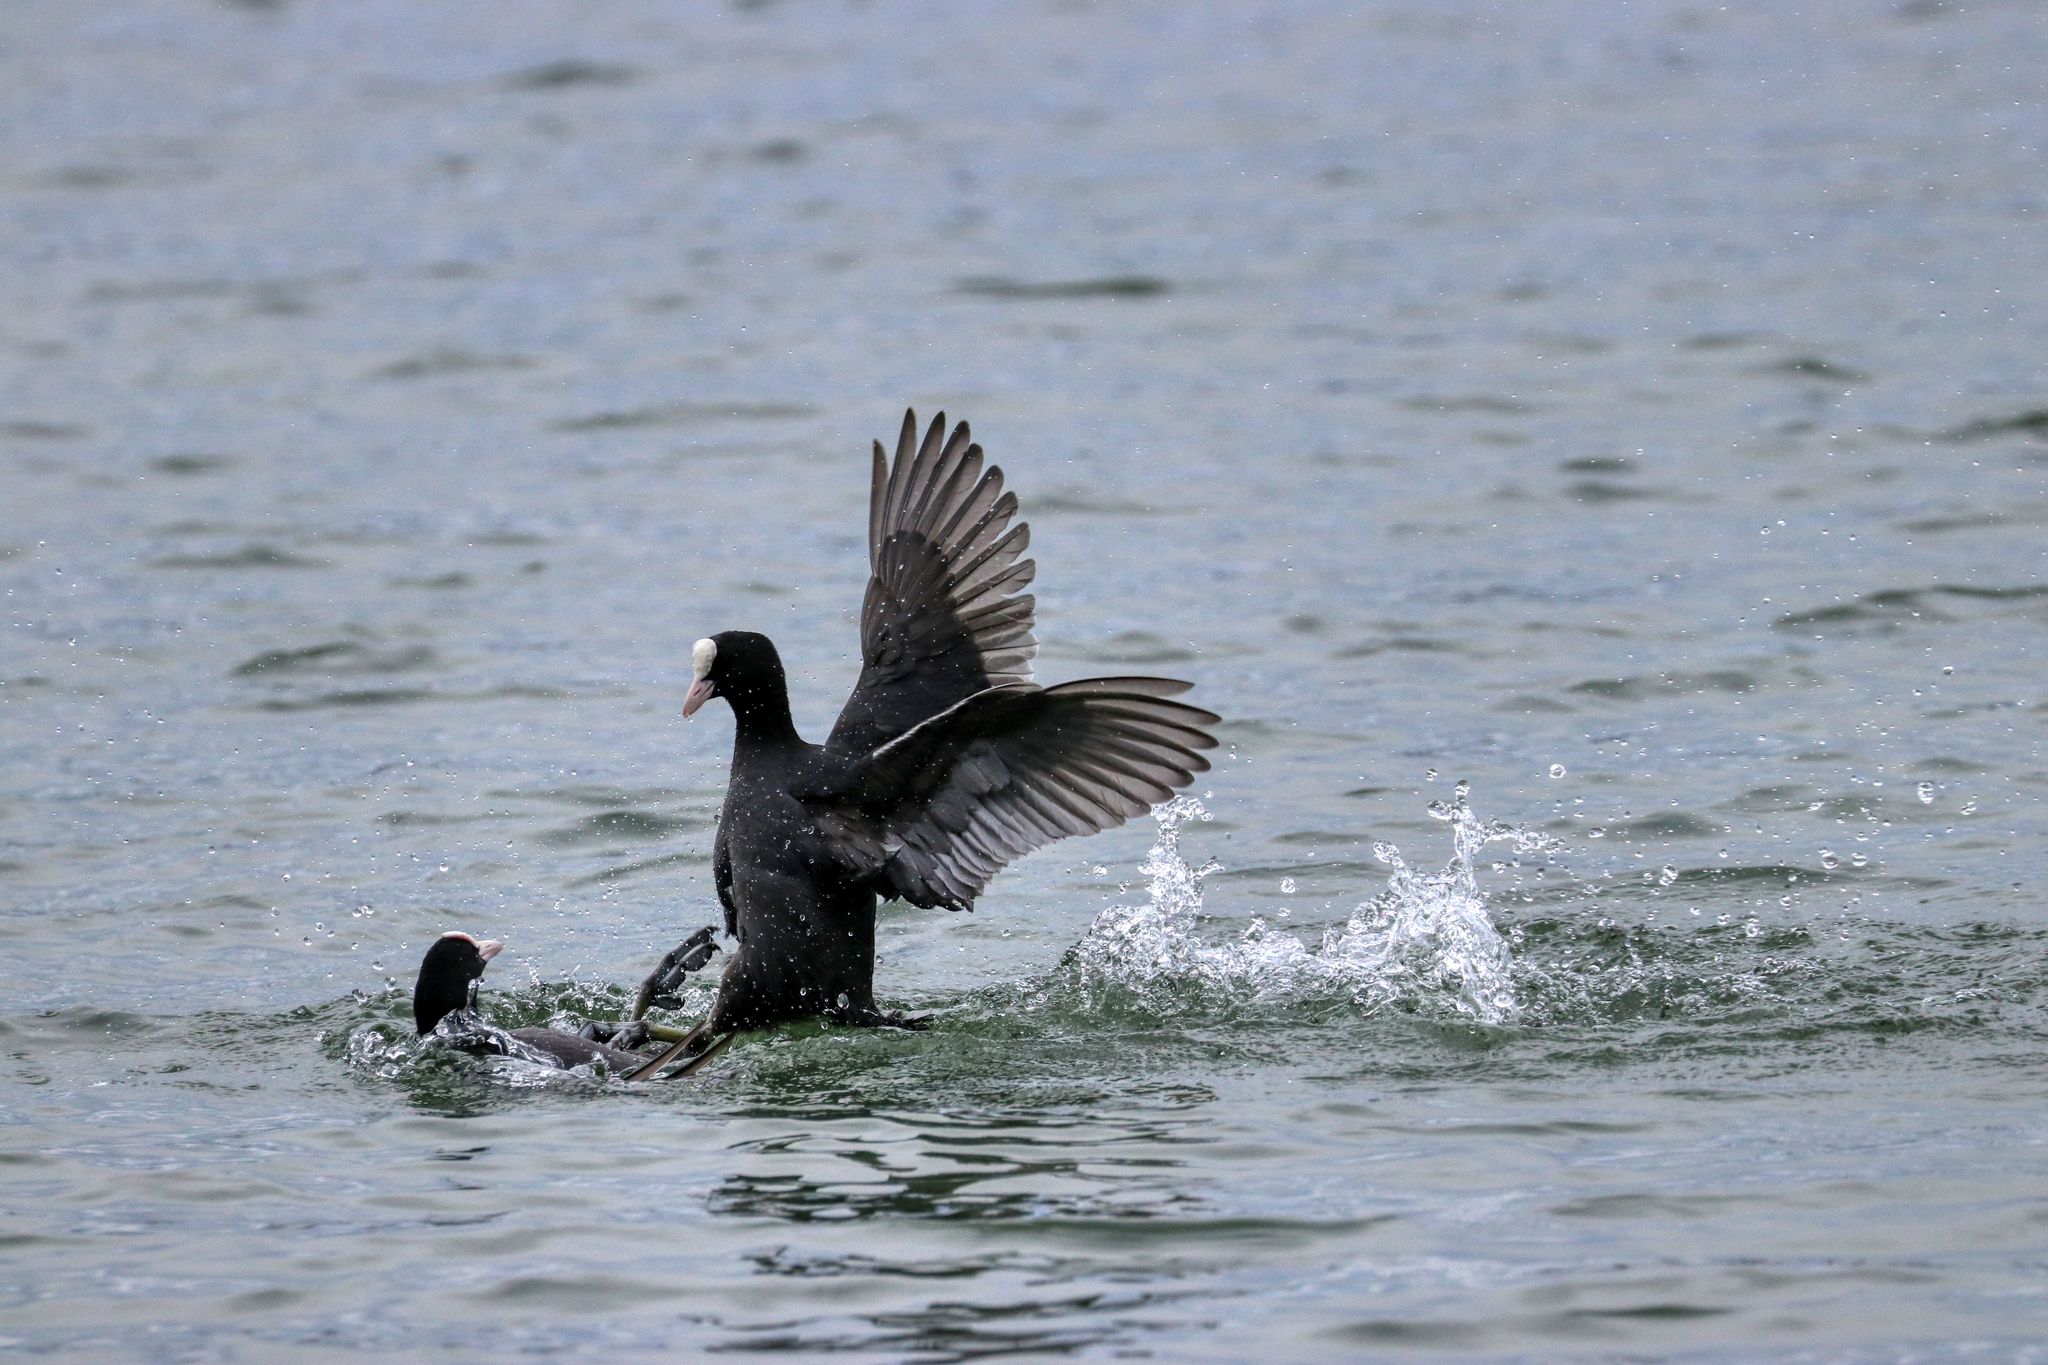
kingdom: Animalia
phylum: Chordata
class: Aves
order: Gruiformes
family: Rallidae
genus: Fulica
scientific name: Fulica atra
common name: Eurasian coot
